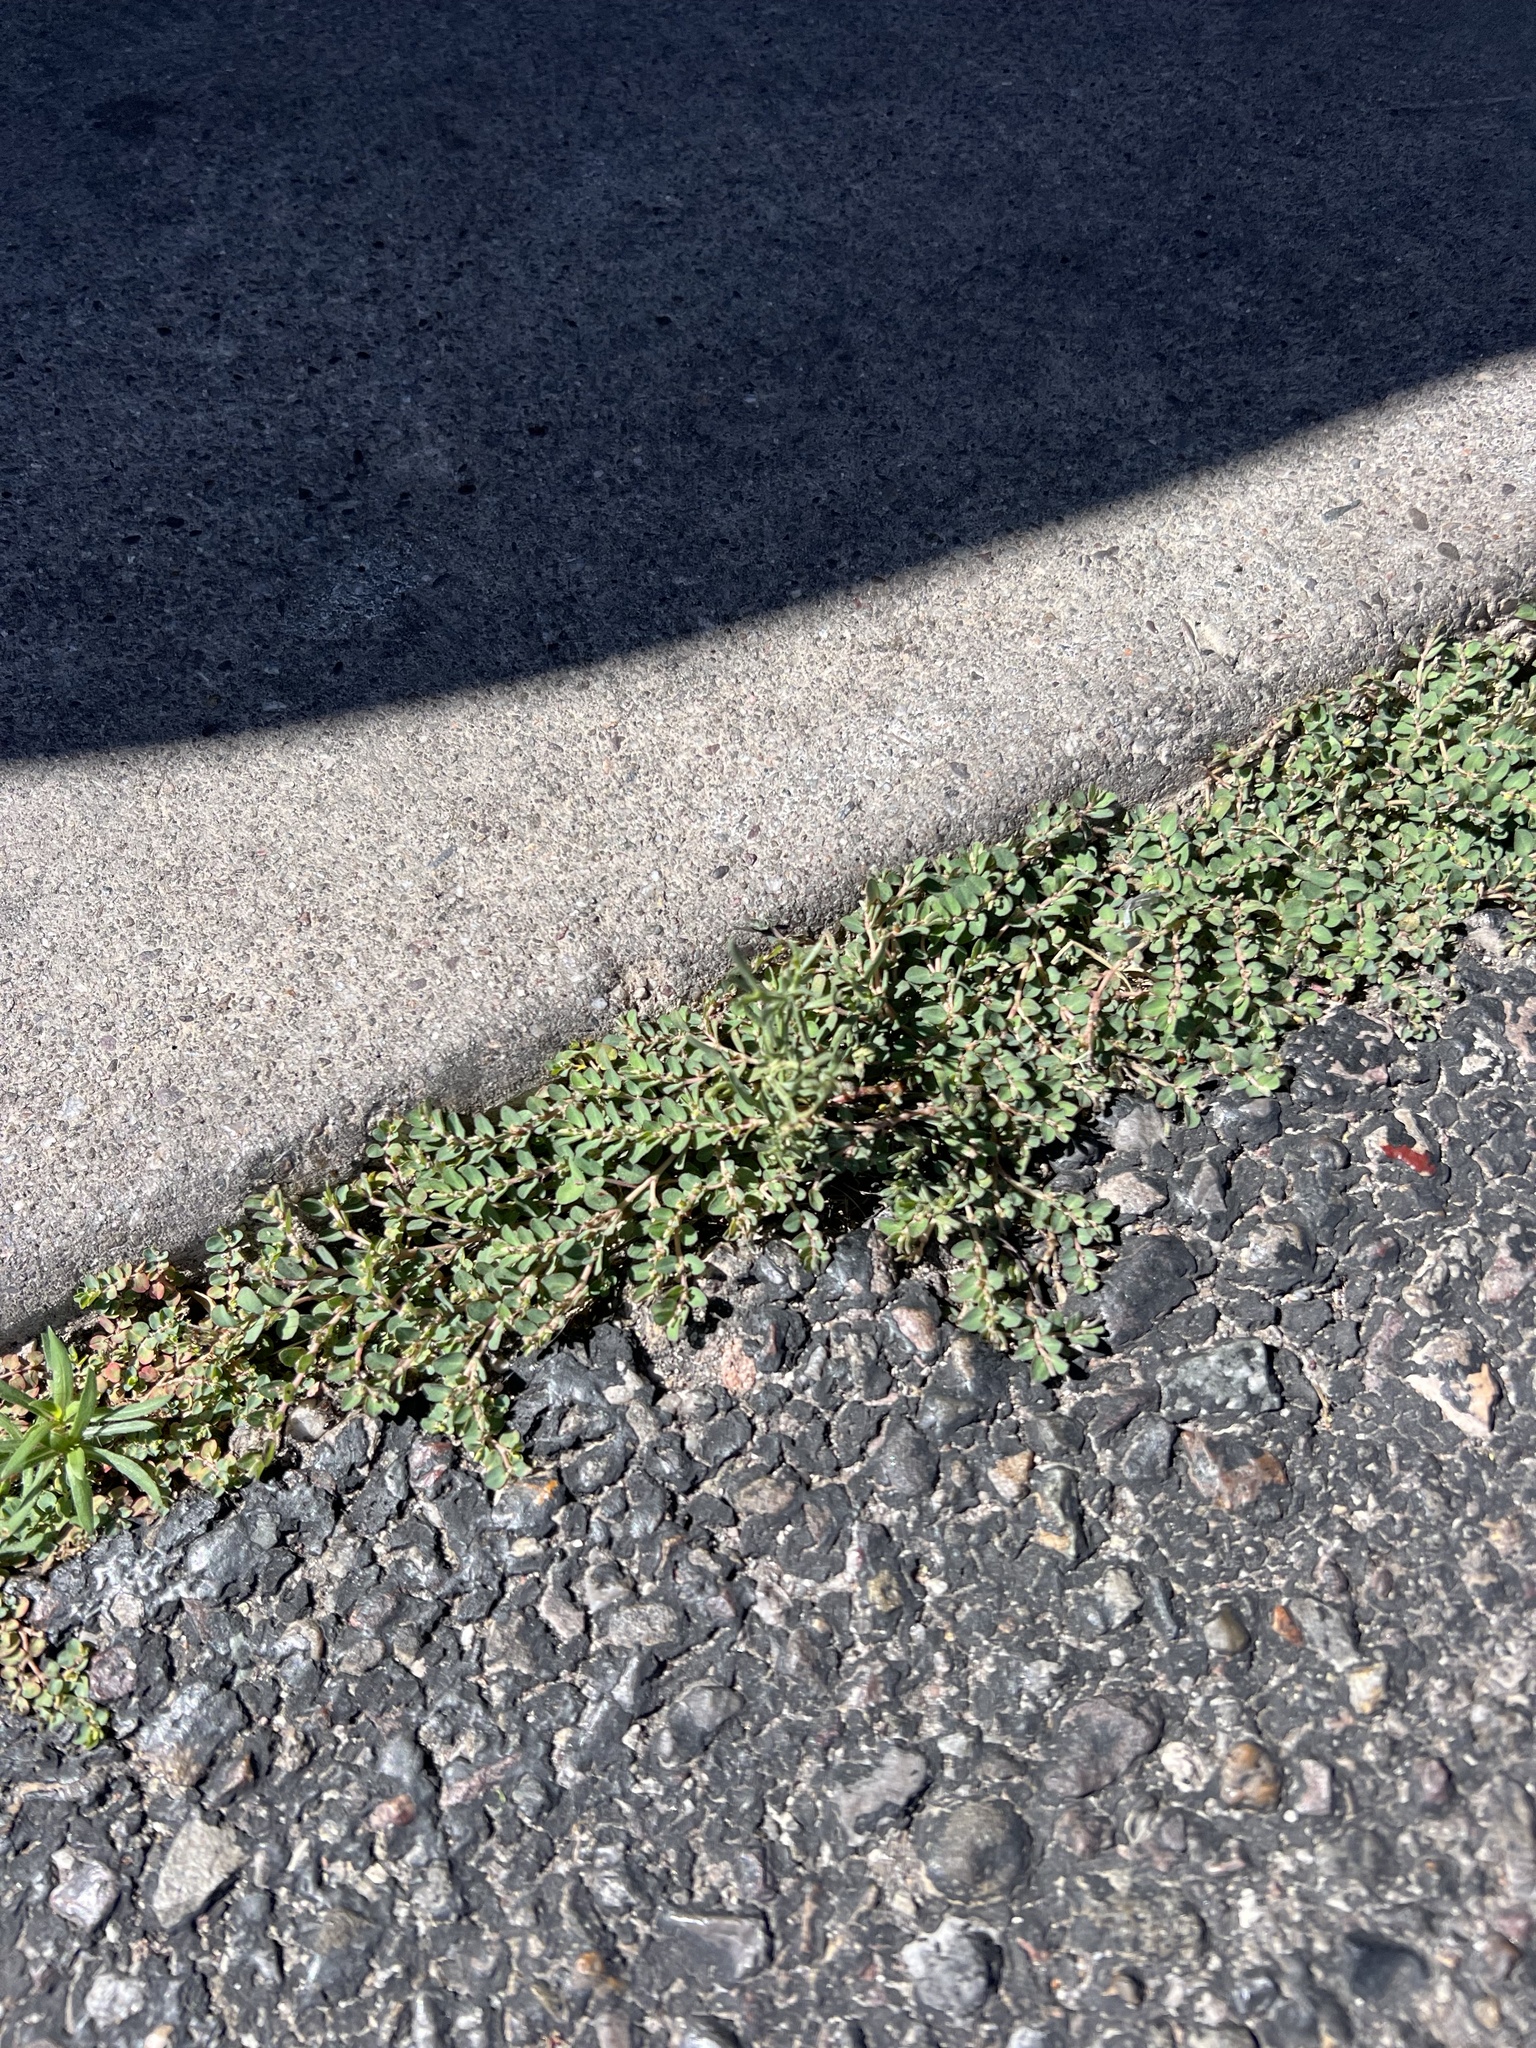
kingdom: Plantae
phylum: Tracheophyta
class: Magnoliopsida
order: Malpighiales
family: Euphorbiaceae
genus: Euphorbia
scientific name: Euphorbia prostrata
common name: Prostrate sandmat
